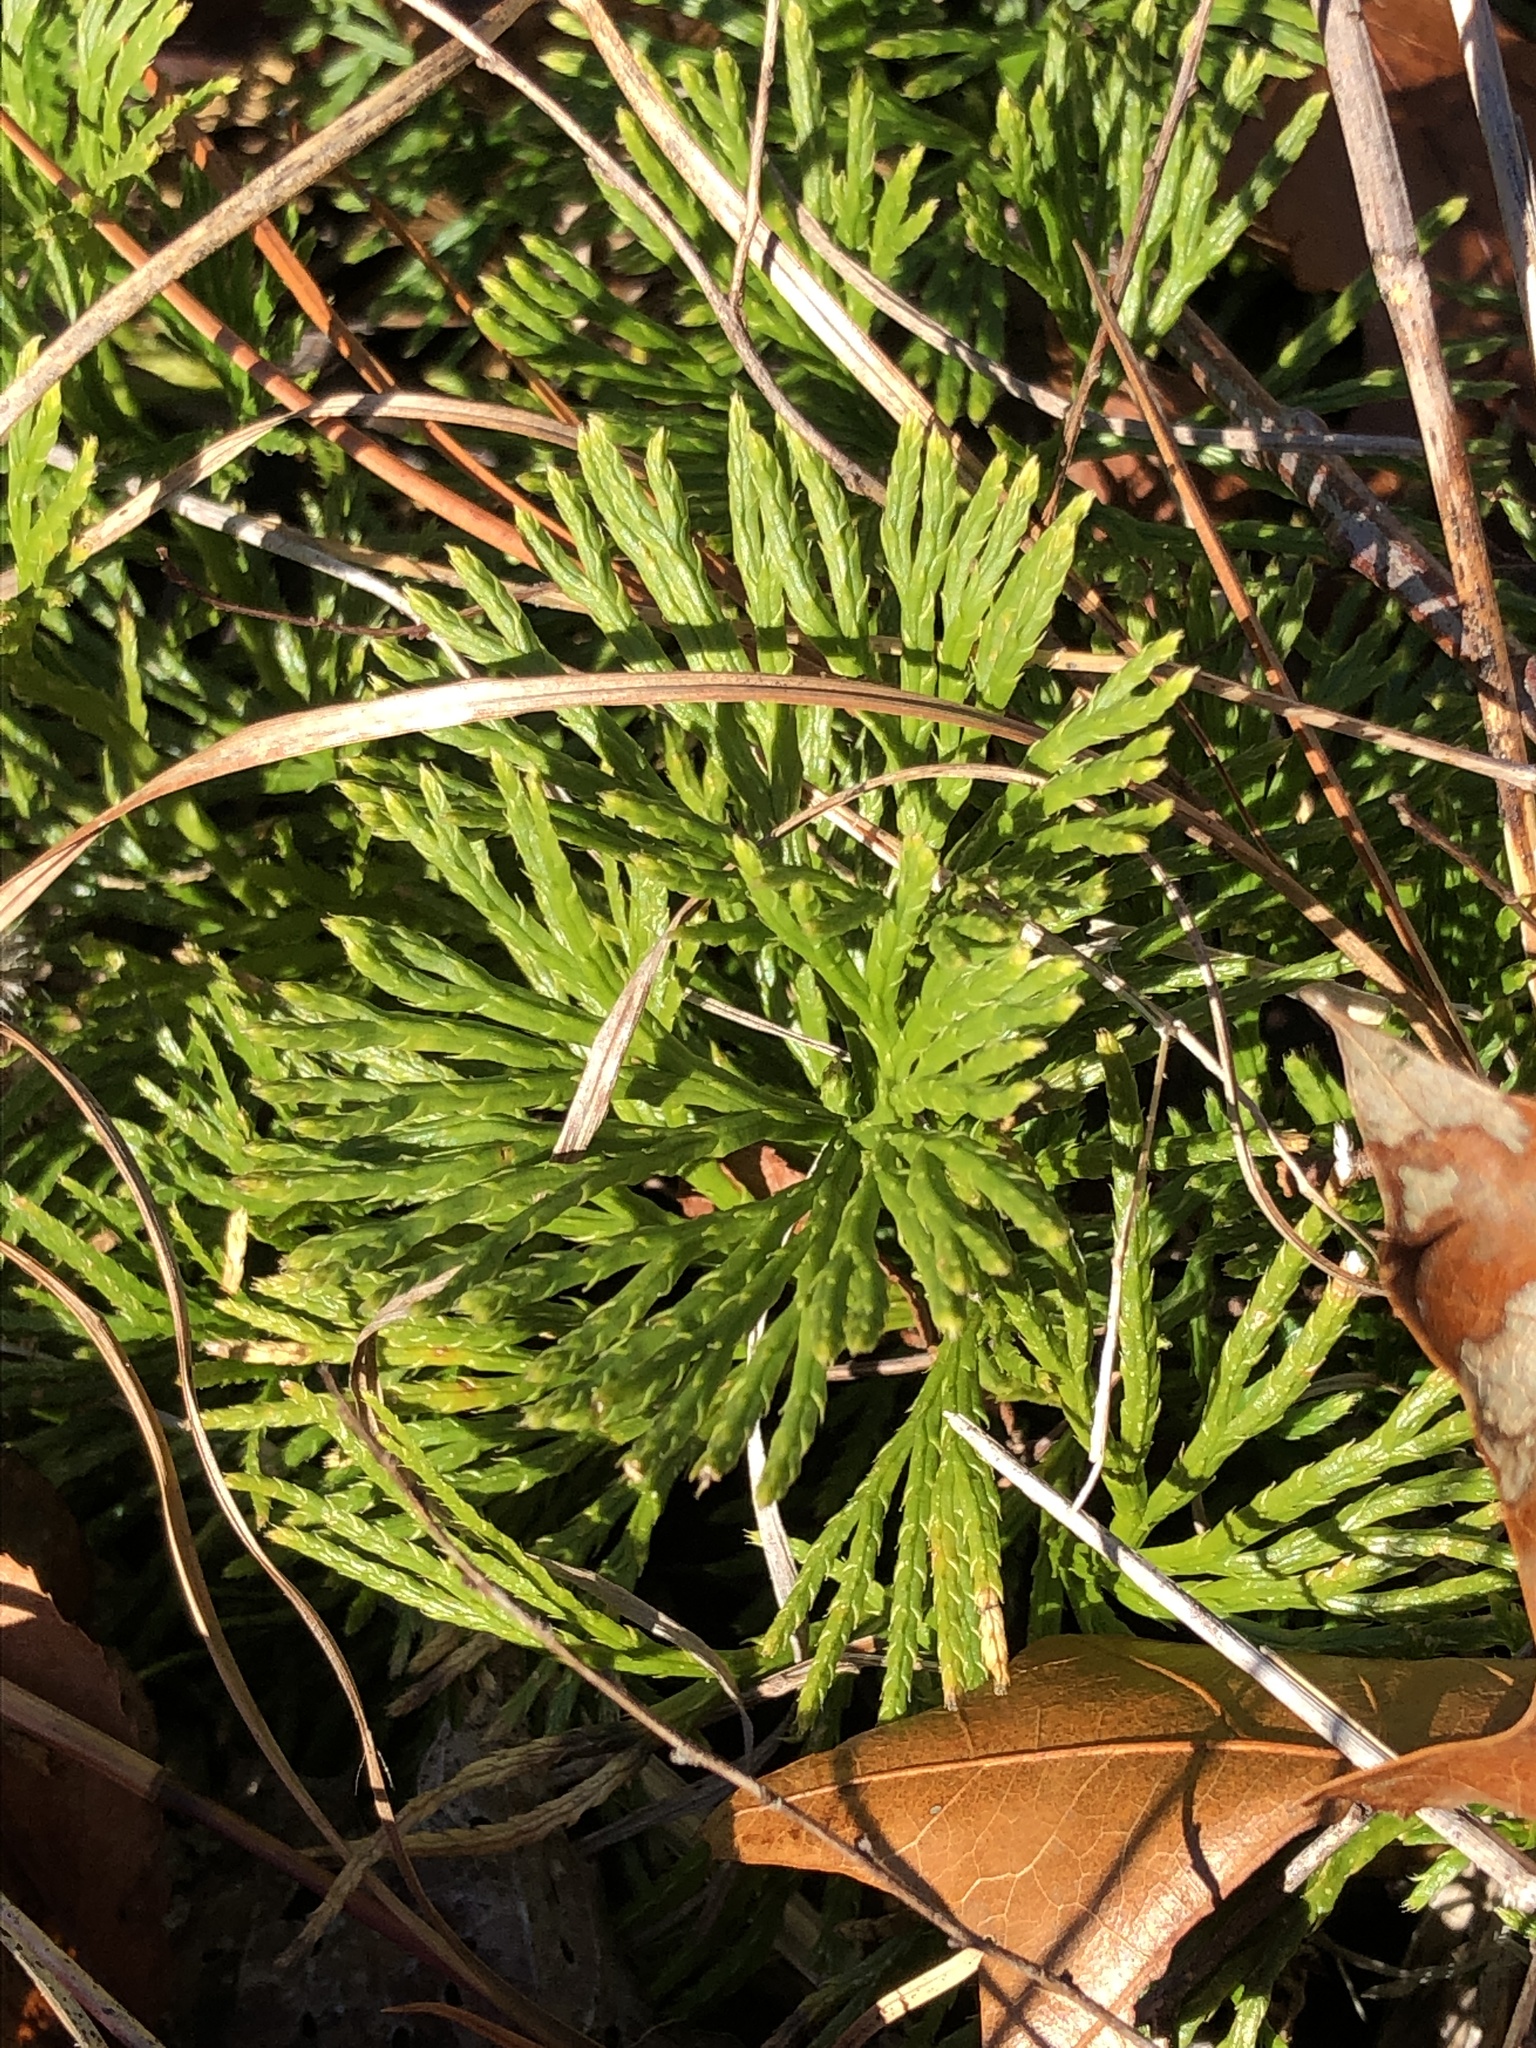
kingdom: Plantae
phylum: Tracheophyta
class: Lycopodiopsida
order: Lycopodiales
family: Lycopodiaceae
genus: Diphasiastrum
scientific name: Diphasiastrum digitatum
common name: Southern running-pine
